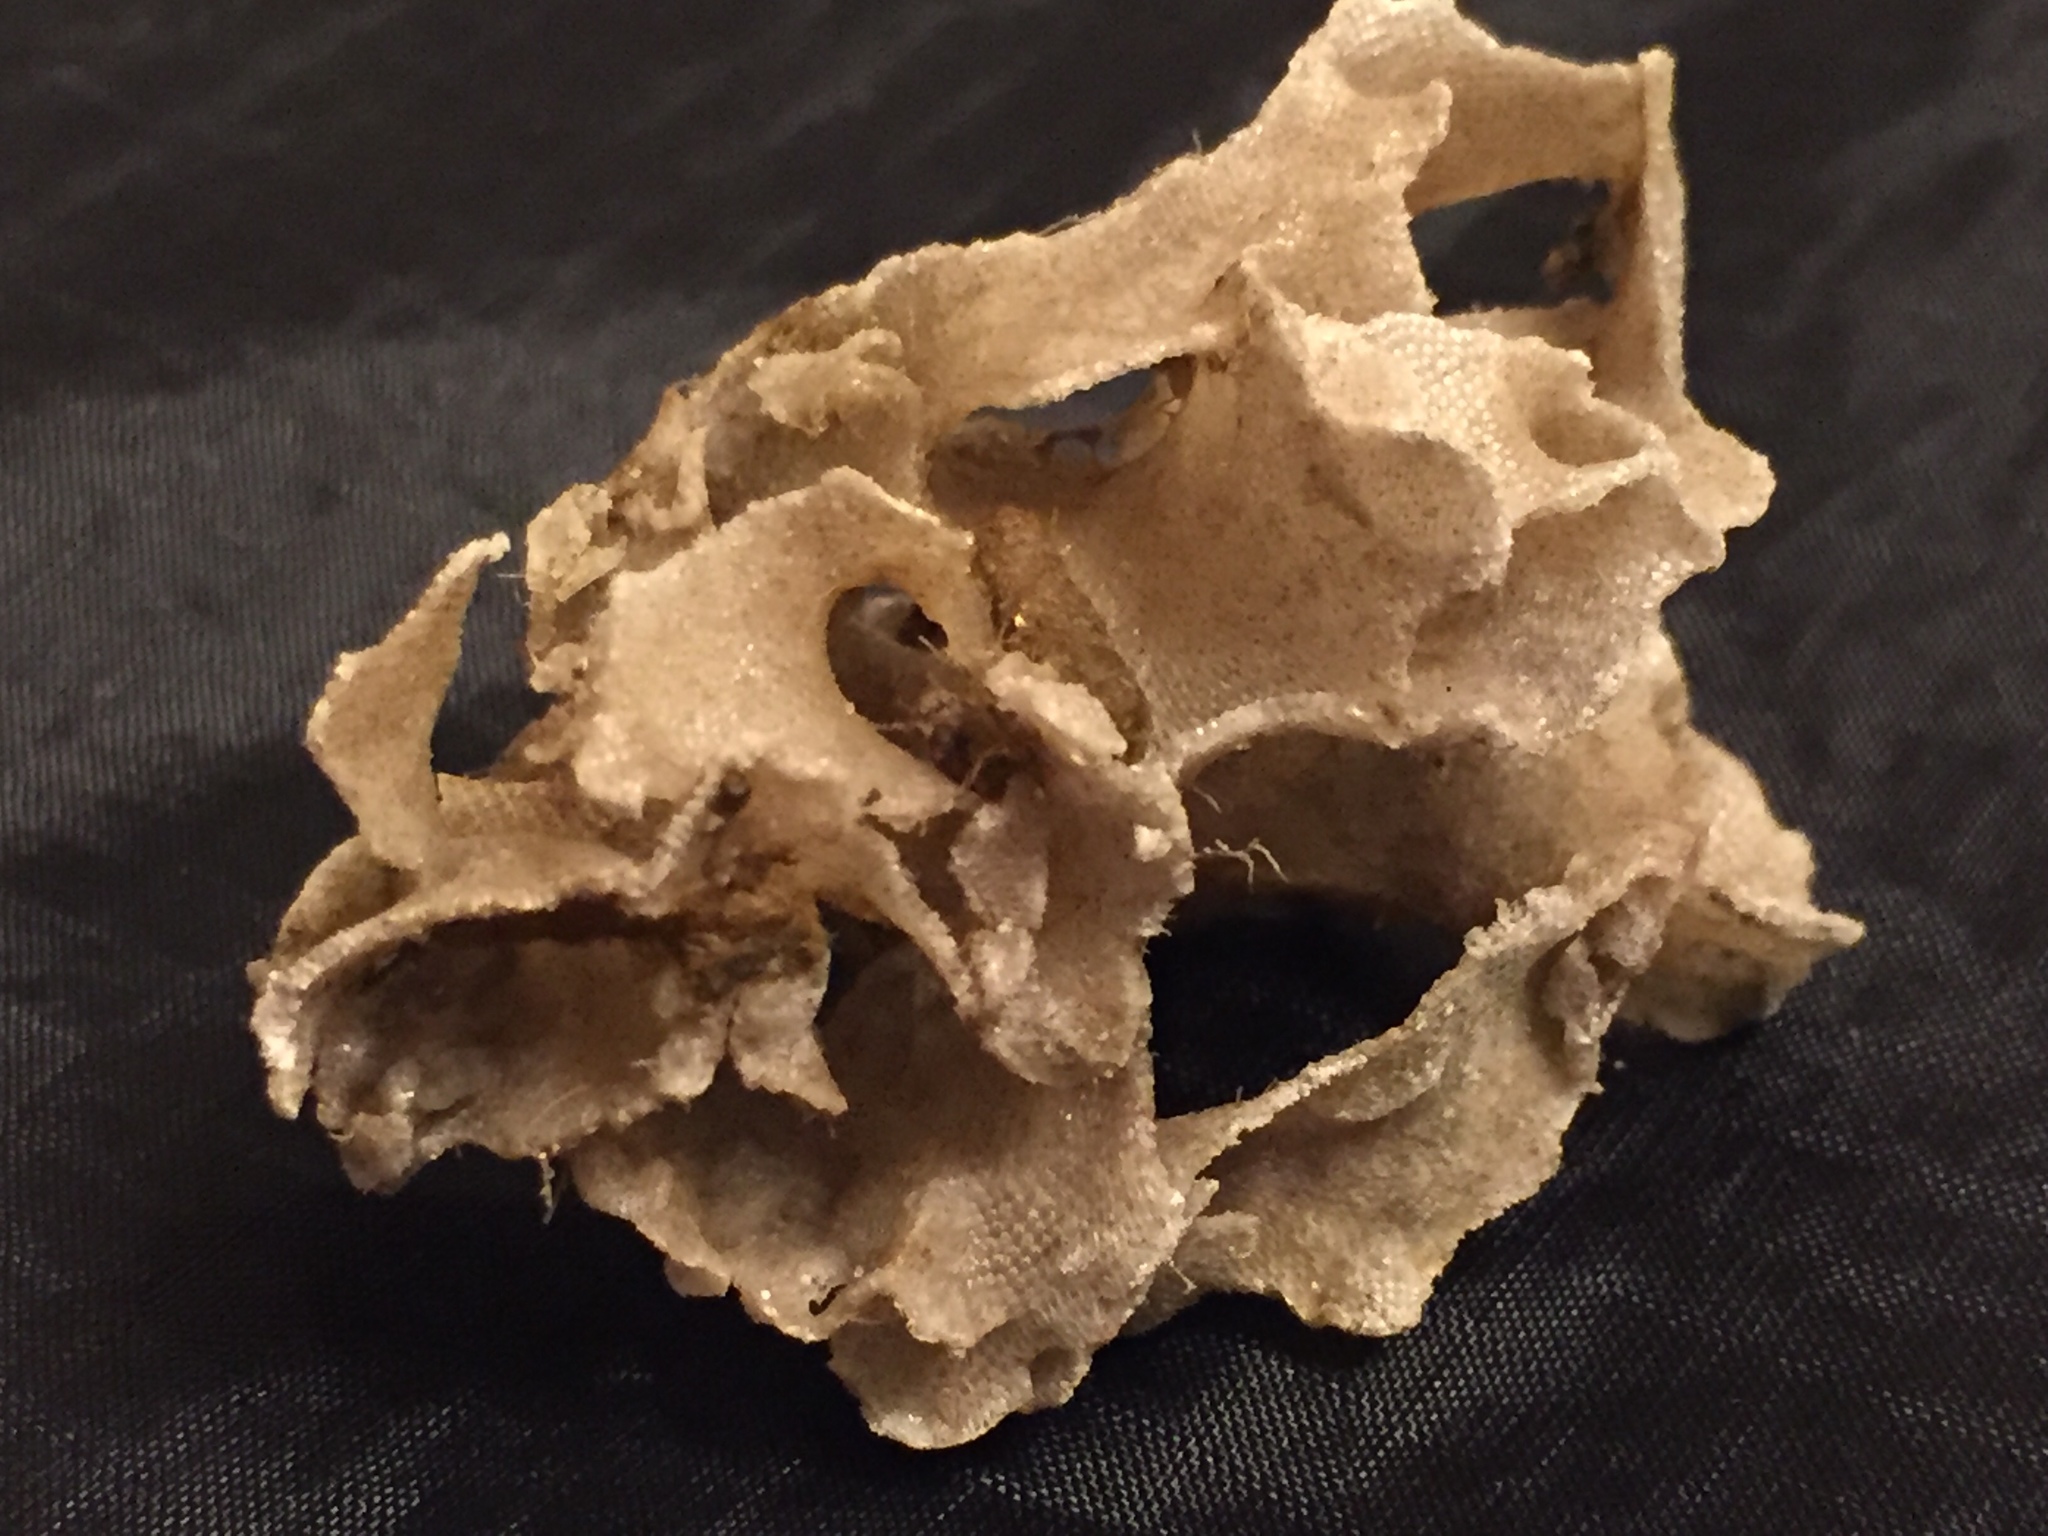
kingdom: Animalia
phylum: Bryozoa
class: Gymnolaemata
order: Cheilostomatida
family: Thalamoporellidae
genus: Thalamoporella
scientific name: Thalamoporella floridana
